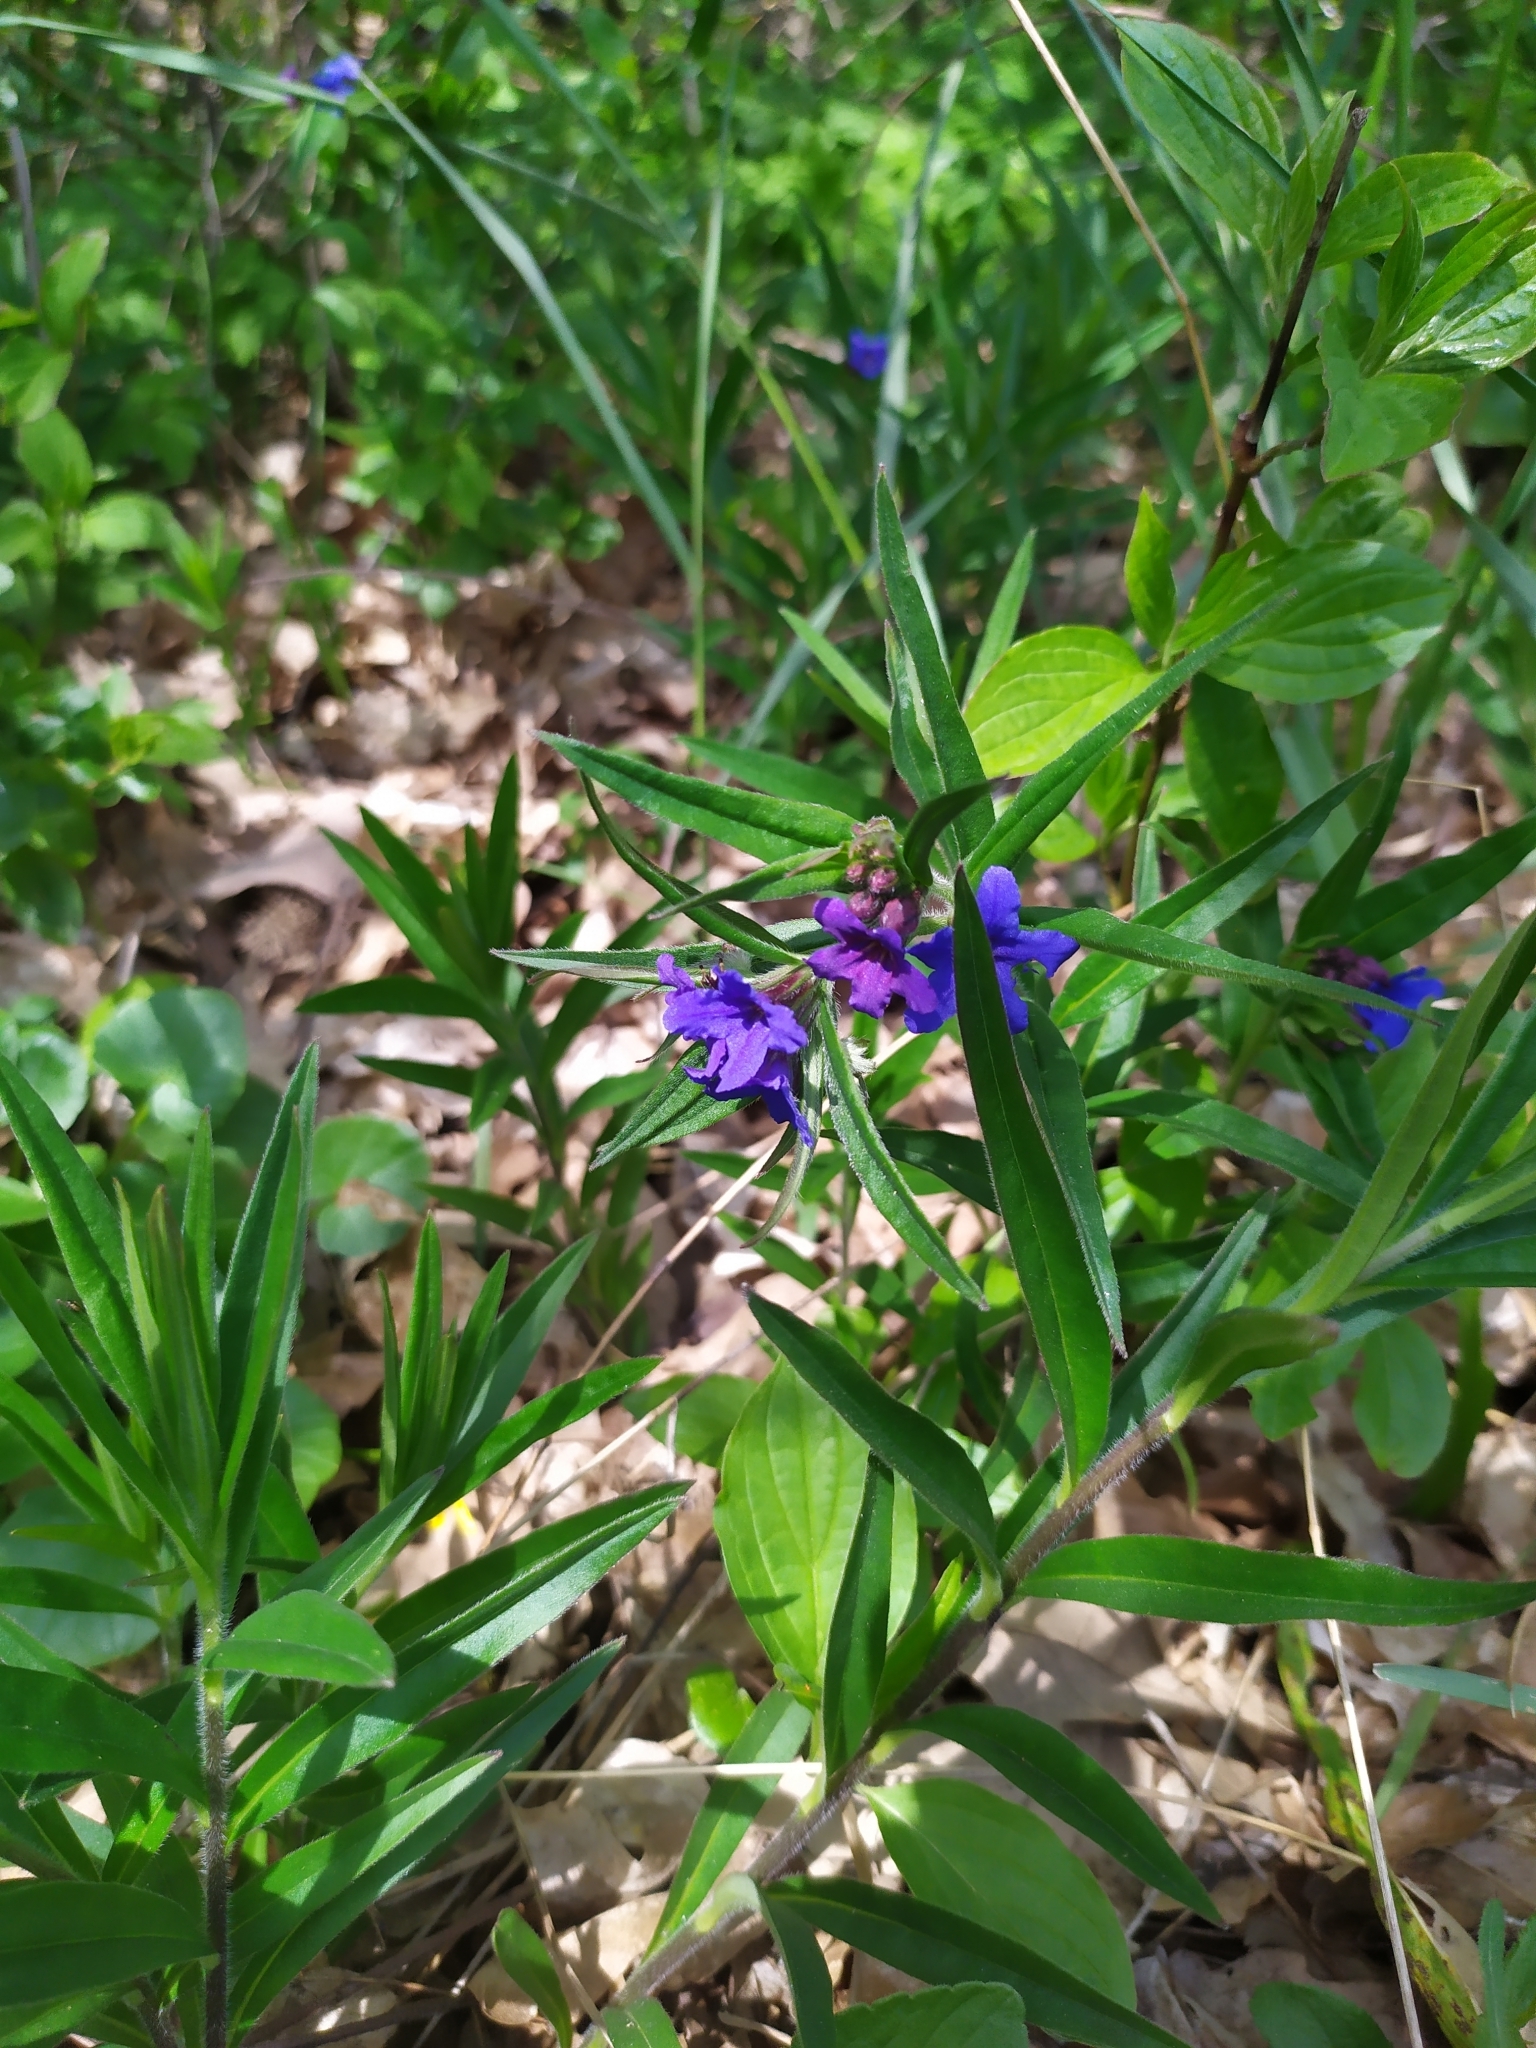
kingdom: Plantae
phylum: Tracheophyta
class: Magnoliopsida
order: Boraginales
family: Boraginaceae
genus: Aegonychon
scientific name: Aegonychon purpurocaeruleum
